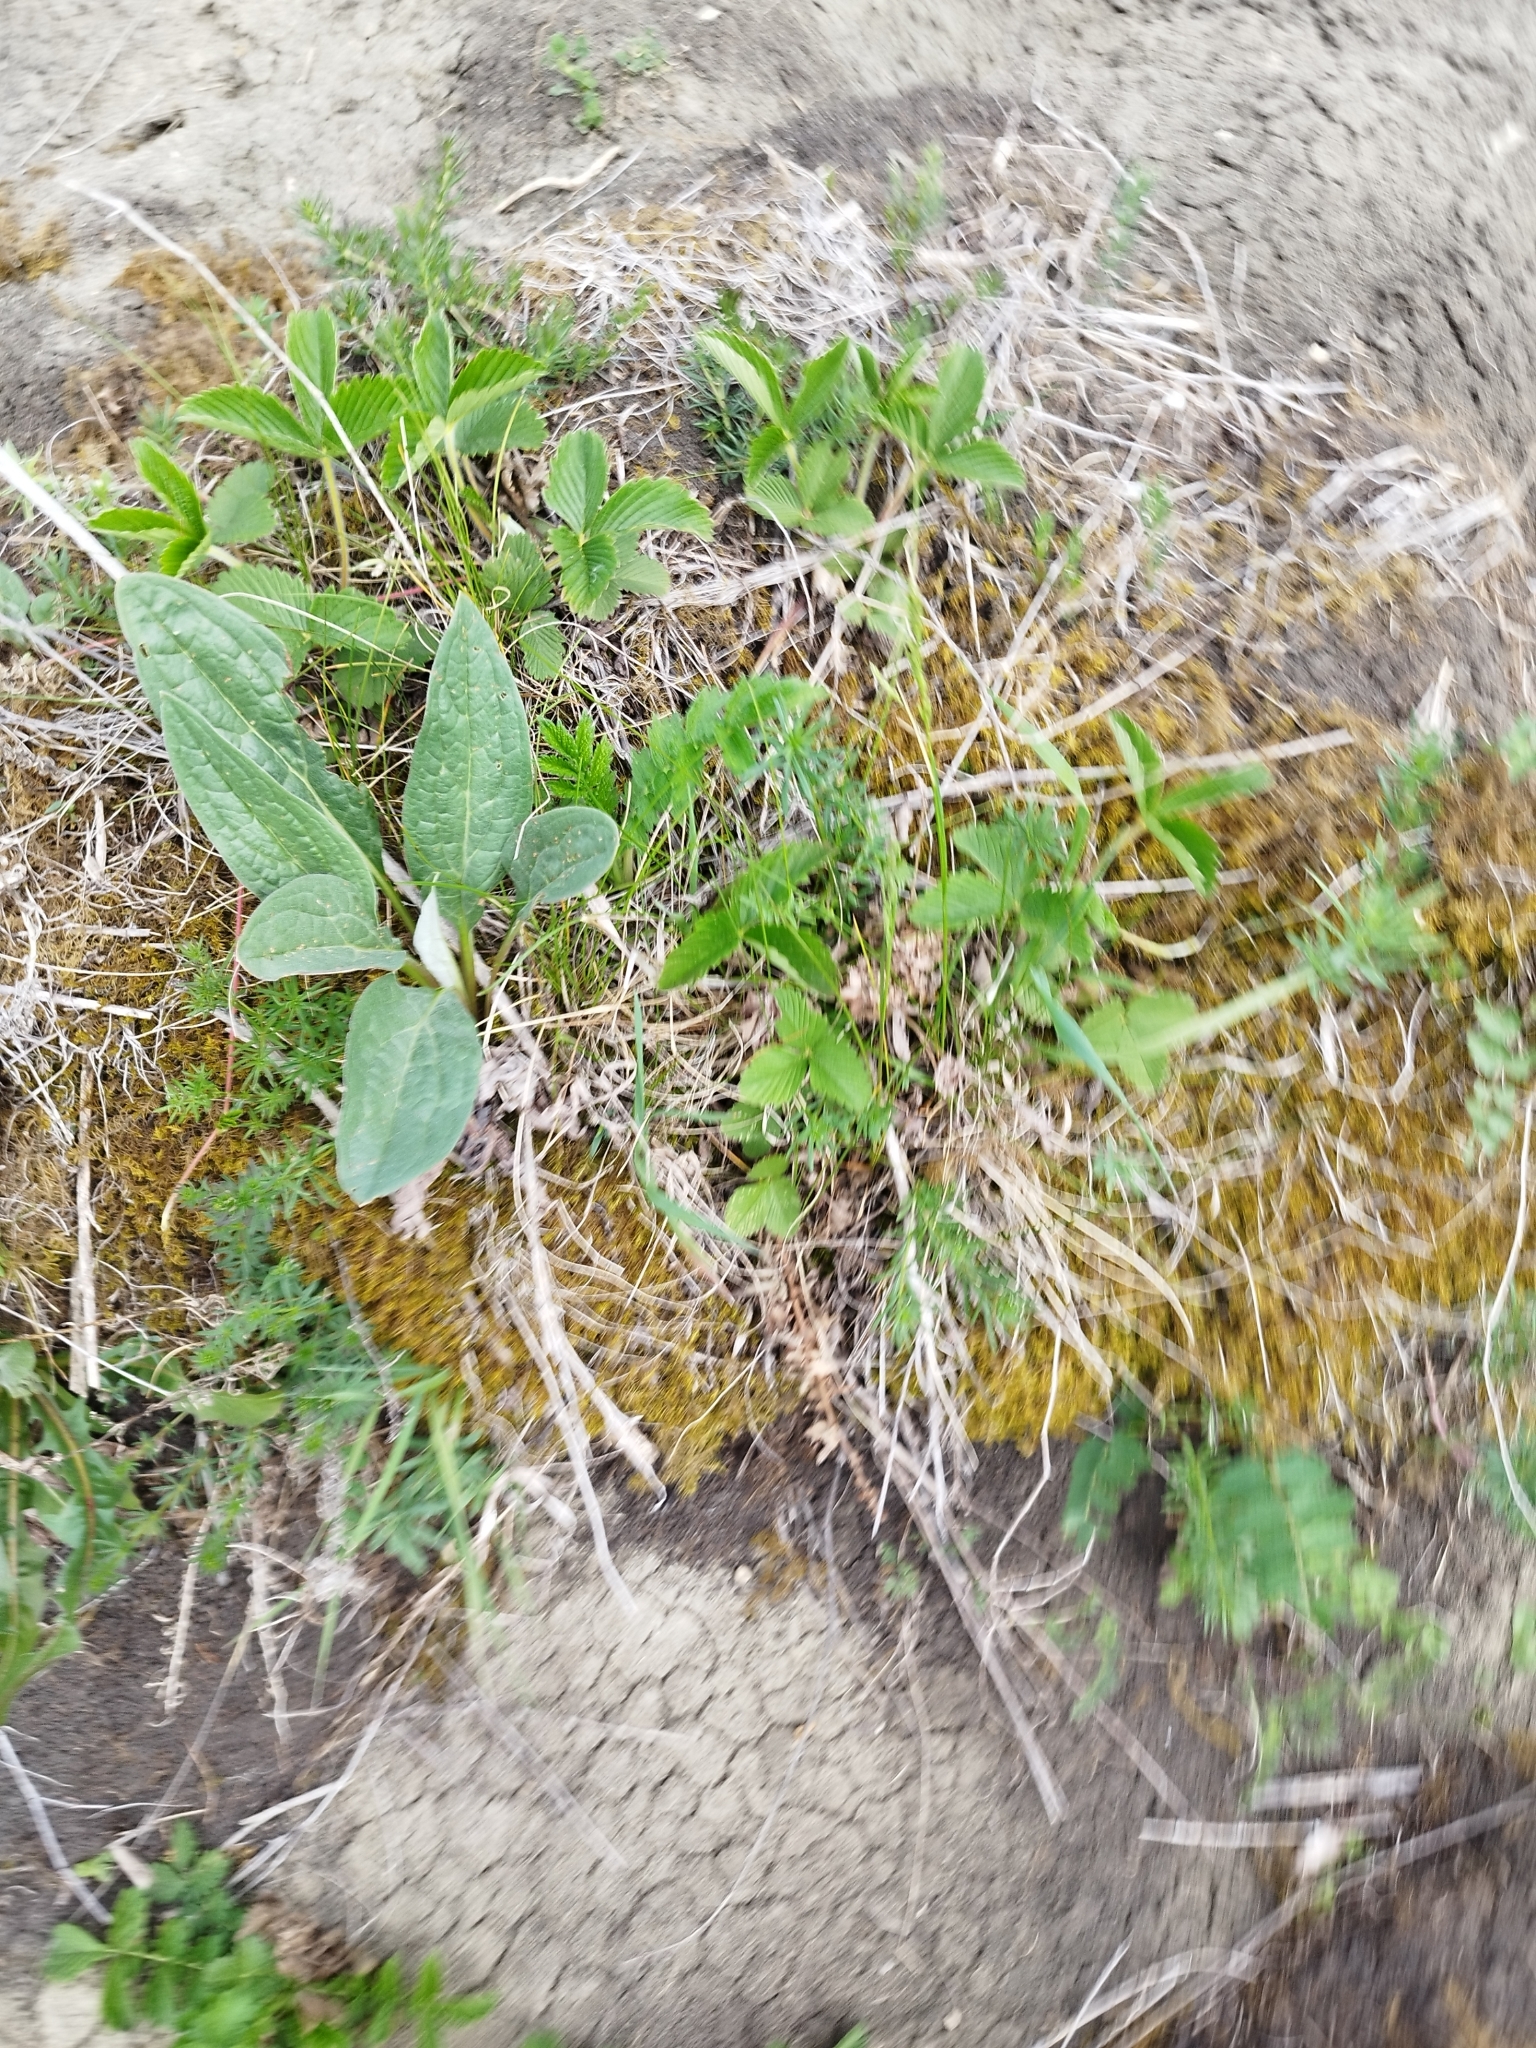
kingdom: Plantae
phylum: Tracheophyta
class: Magnoliopsida
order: Boraginales
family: Boraginaceae
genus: Cynoglossum
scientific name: Cynoglossum officinale
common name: Hound's-tongue
